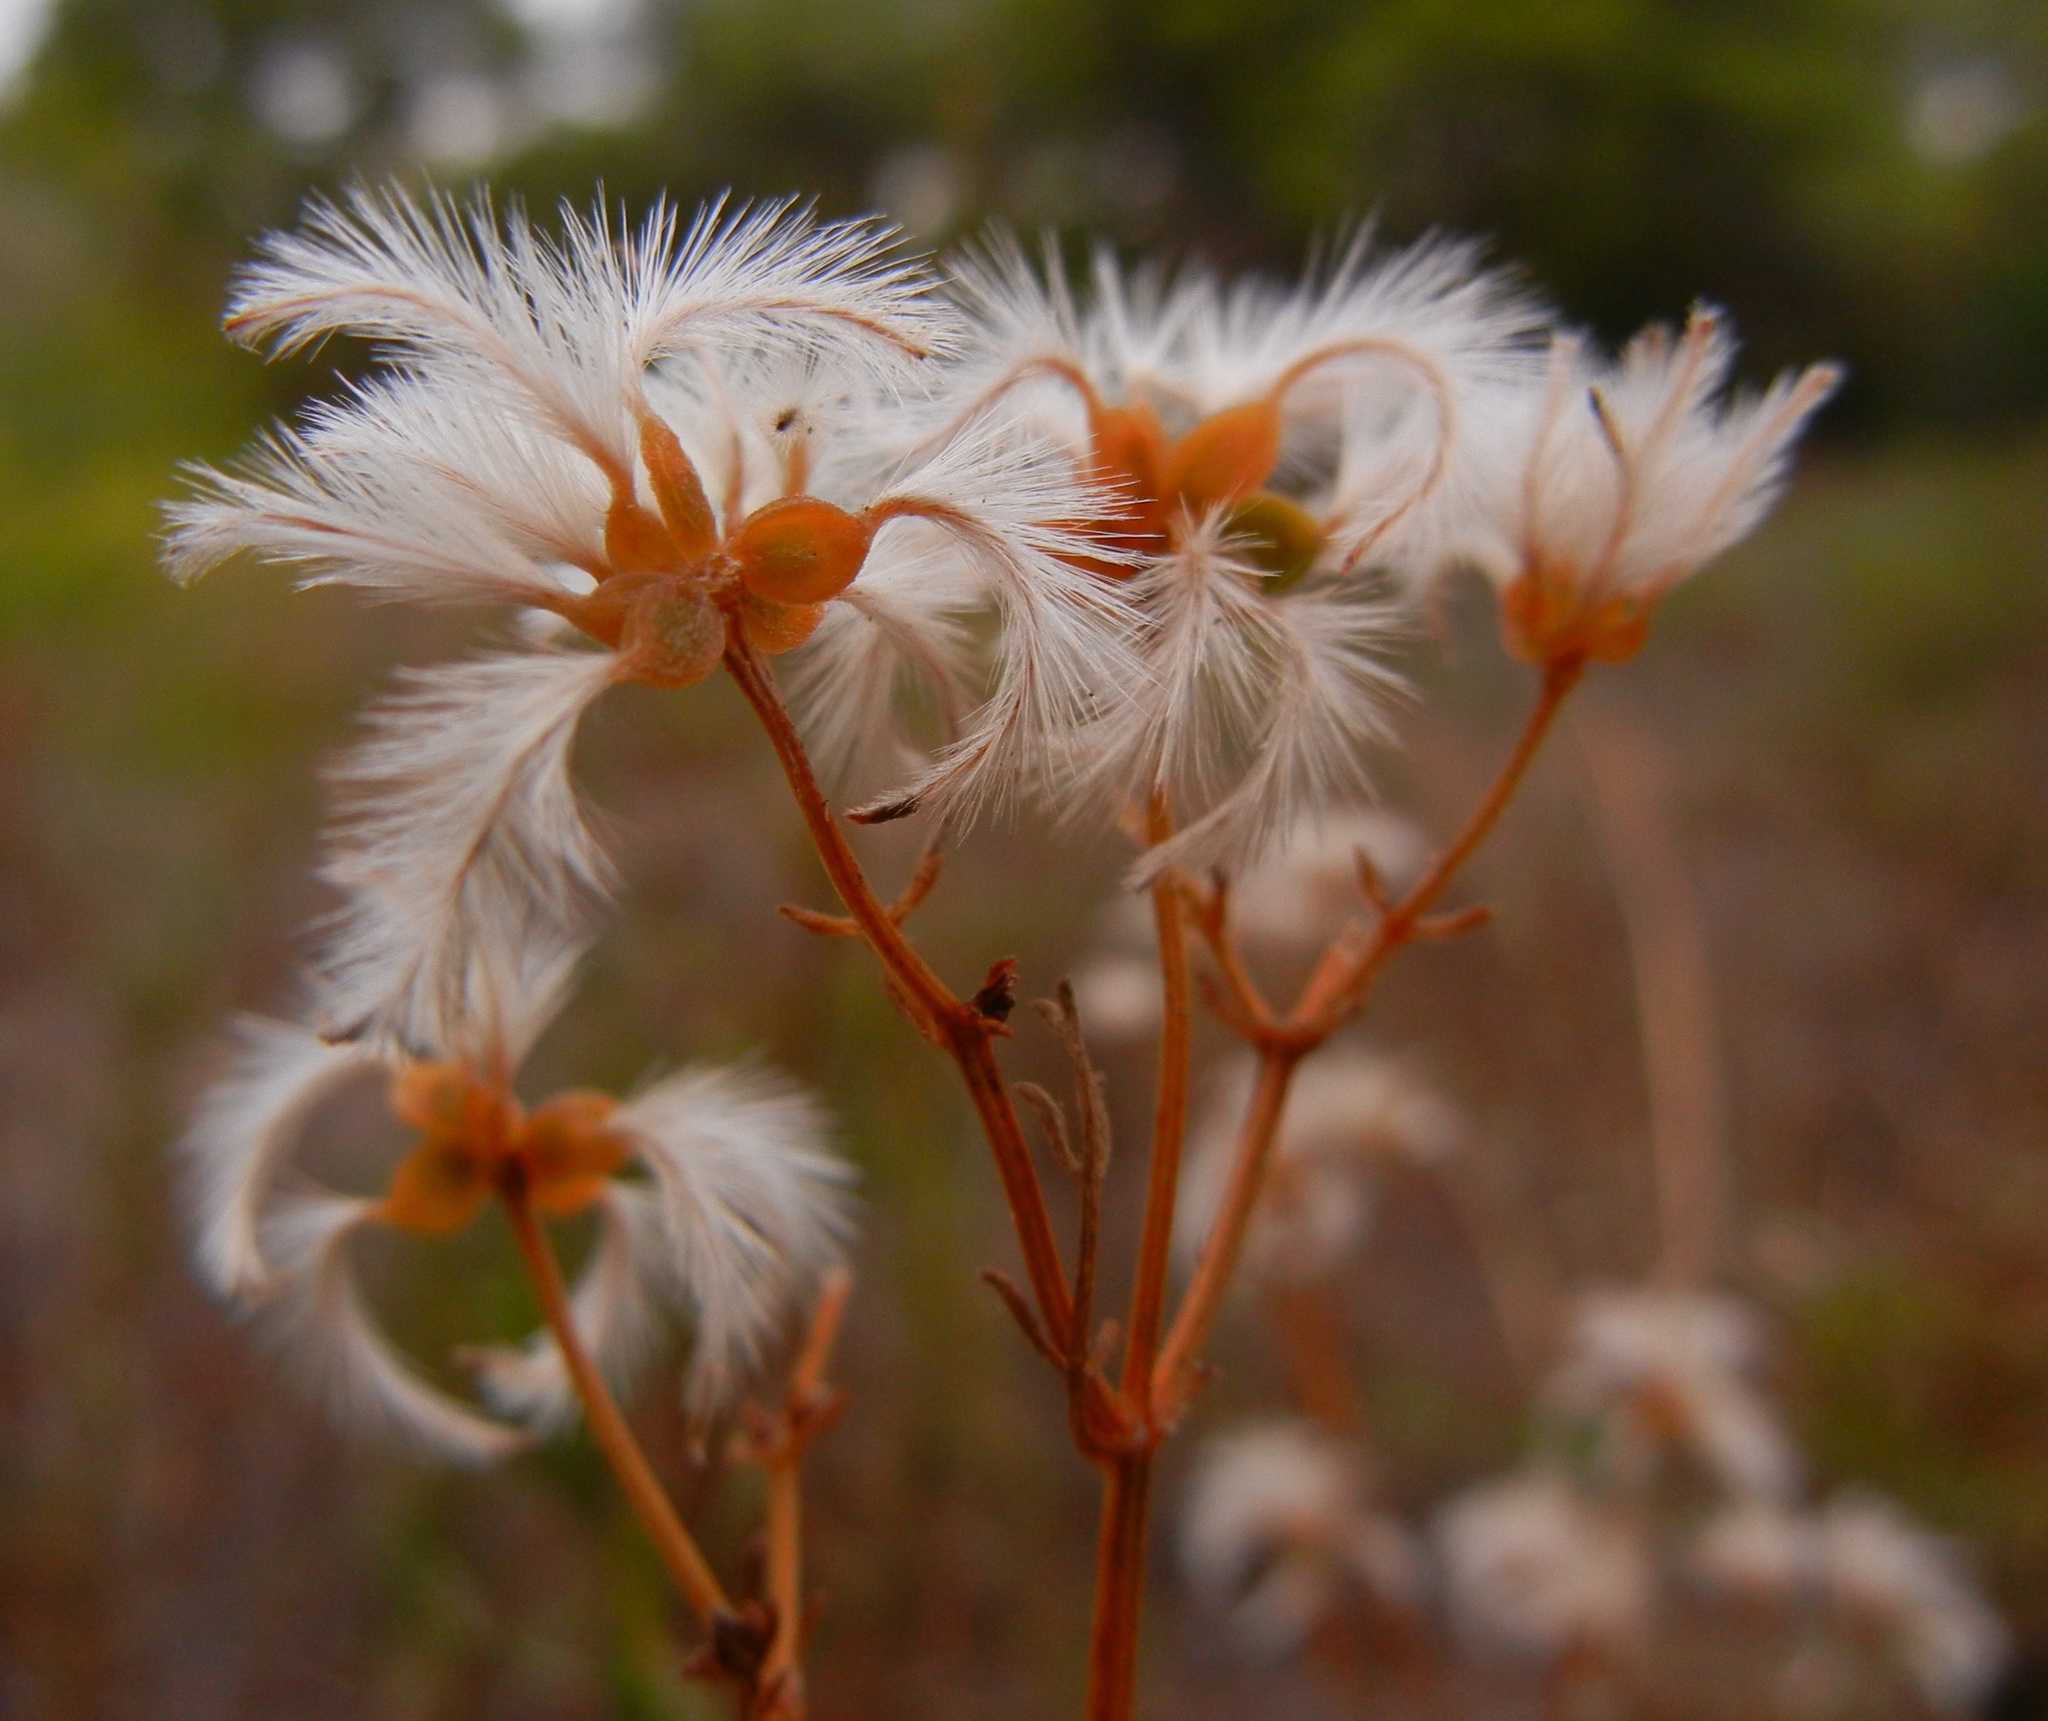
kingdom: Plantae
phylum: Tracheophyta
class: Magnoliopsida
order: Ranunculales
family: Ranunculaceae
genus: Clematis
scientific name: Clematis flammula
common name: Virgin's-bower
